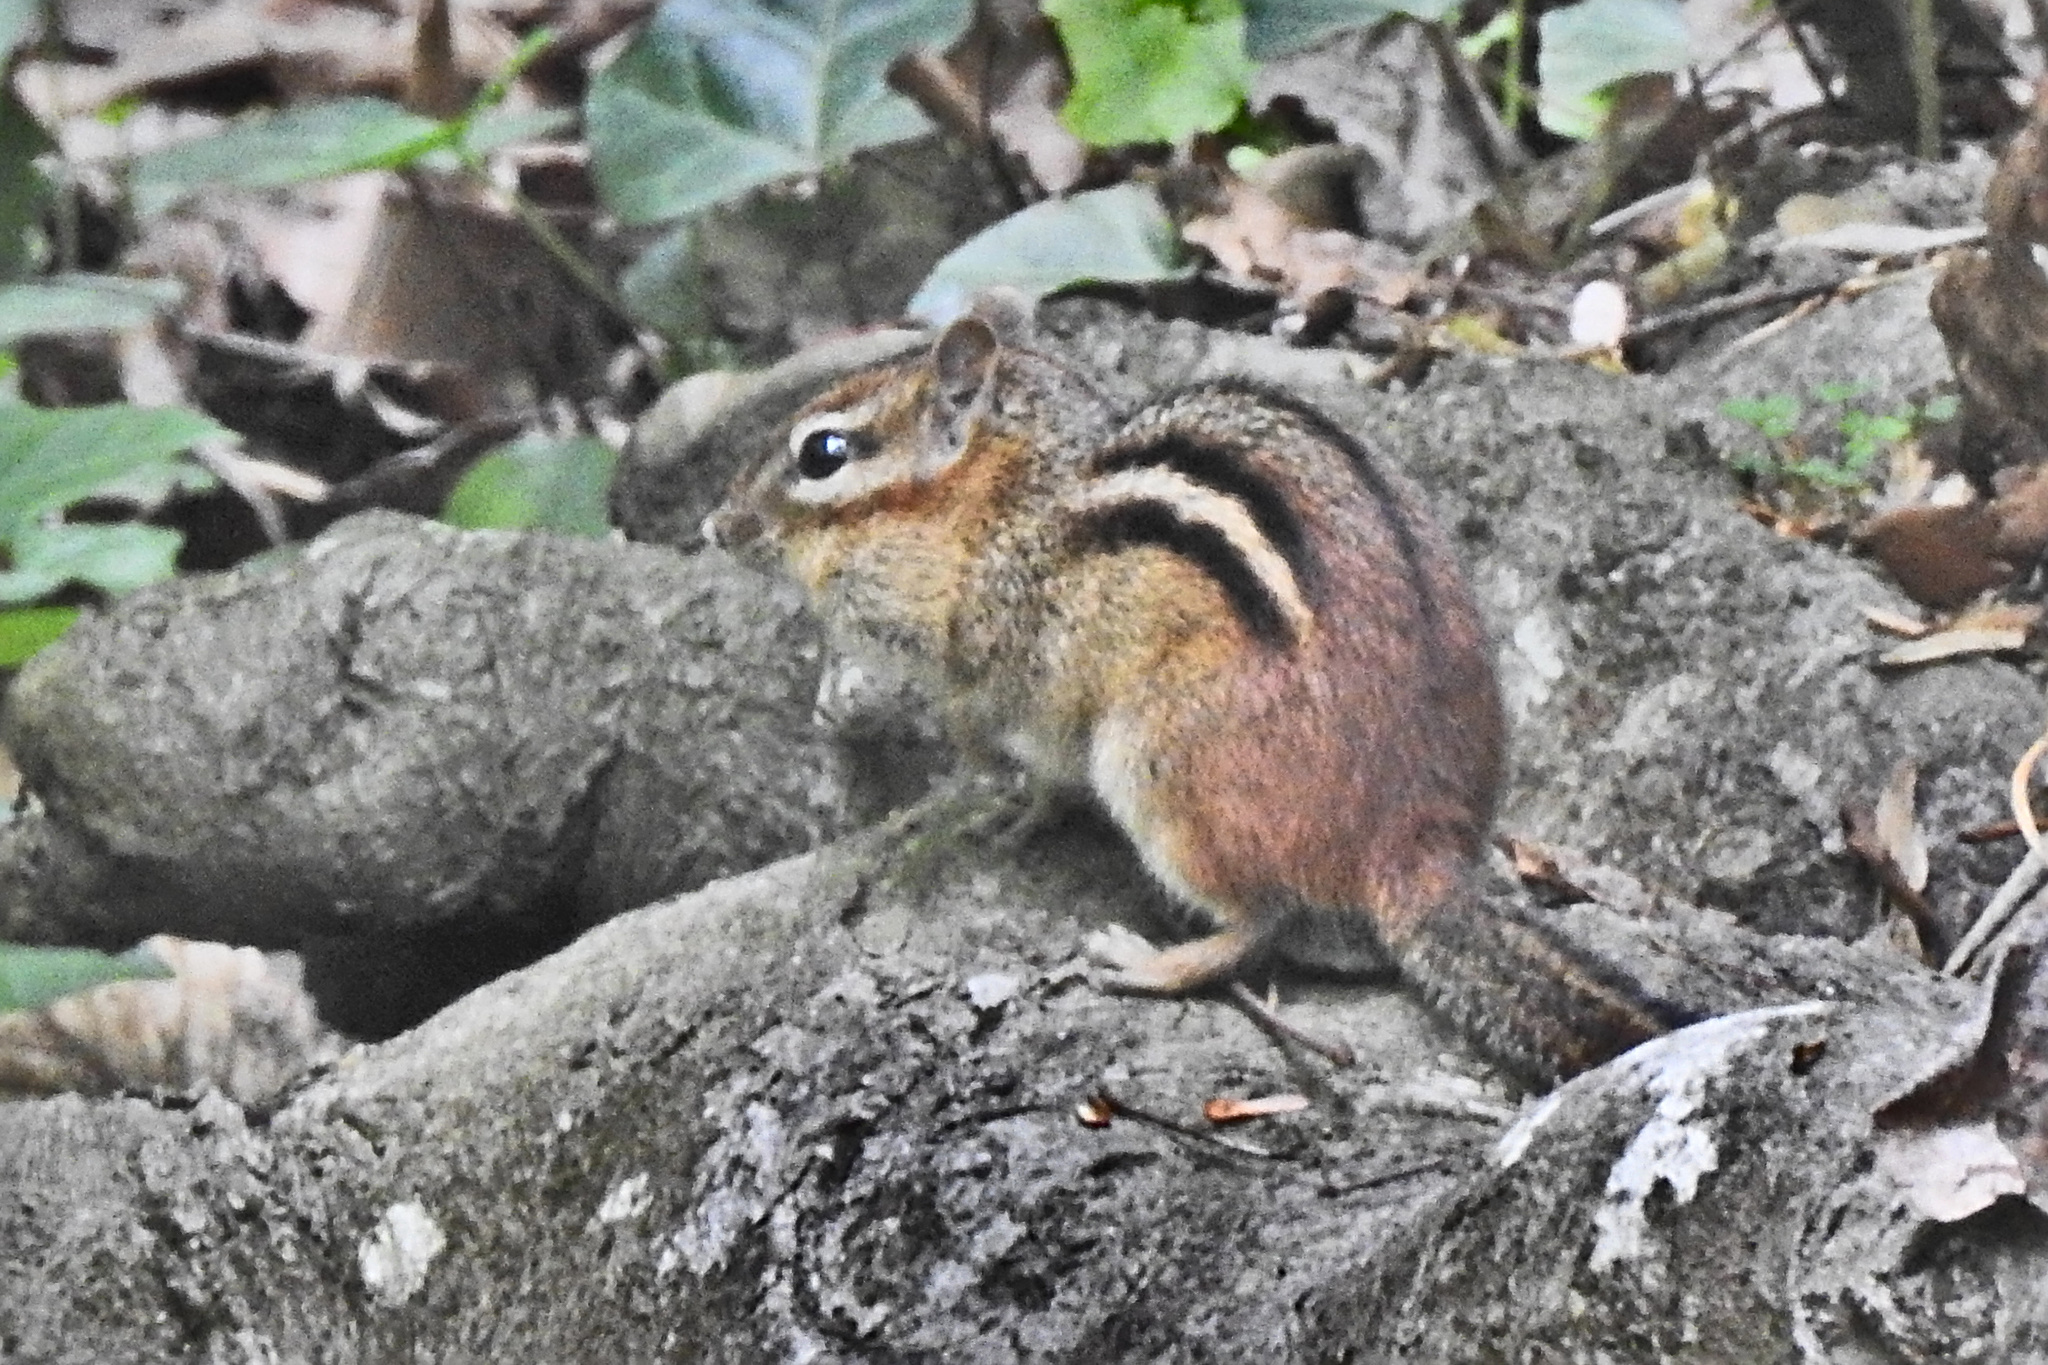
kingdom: Animalia
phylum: Chordata
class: Mammalia
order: Rodentia
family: Sciuridae
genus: Tamias
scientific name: Tamias striatus
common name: Eastern chipmunk
